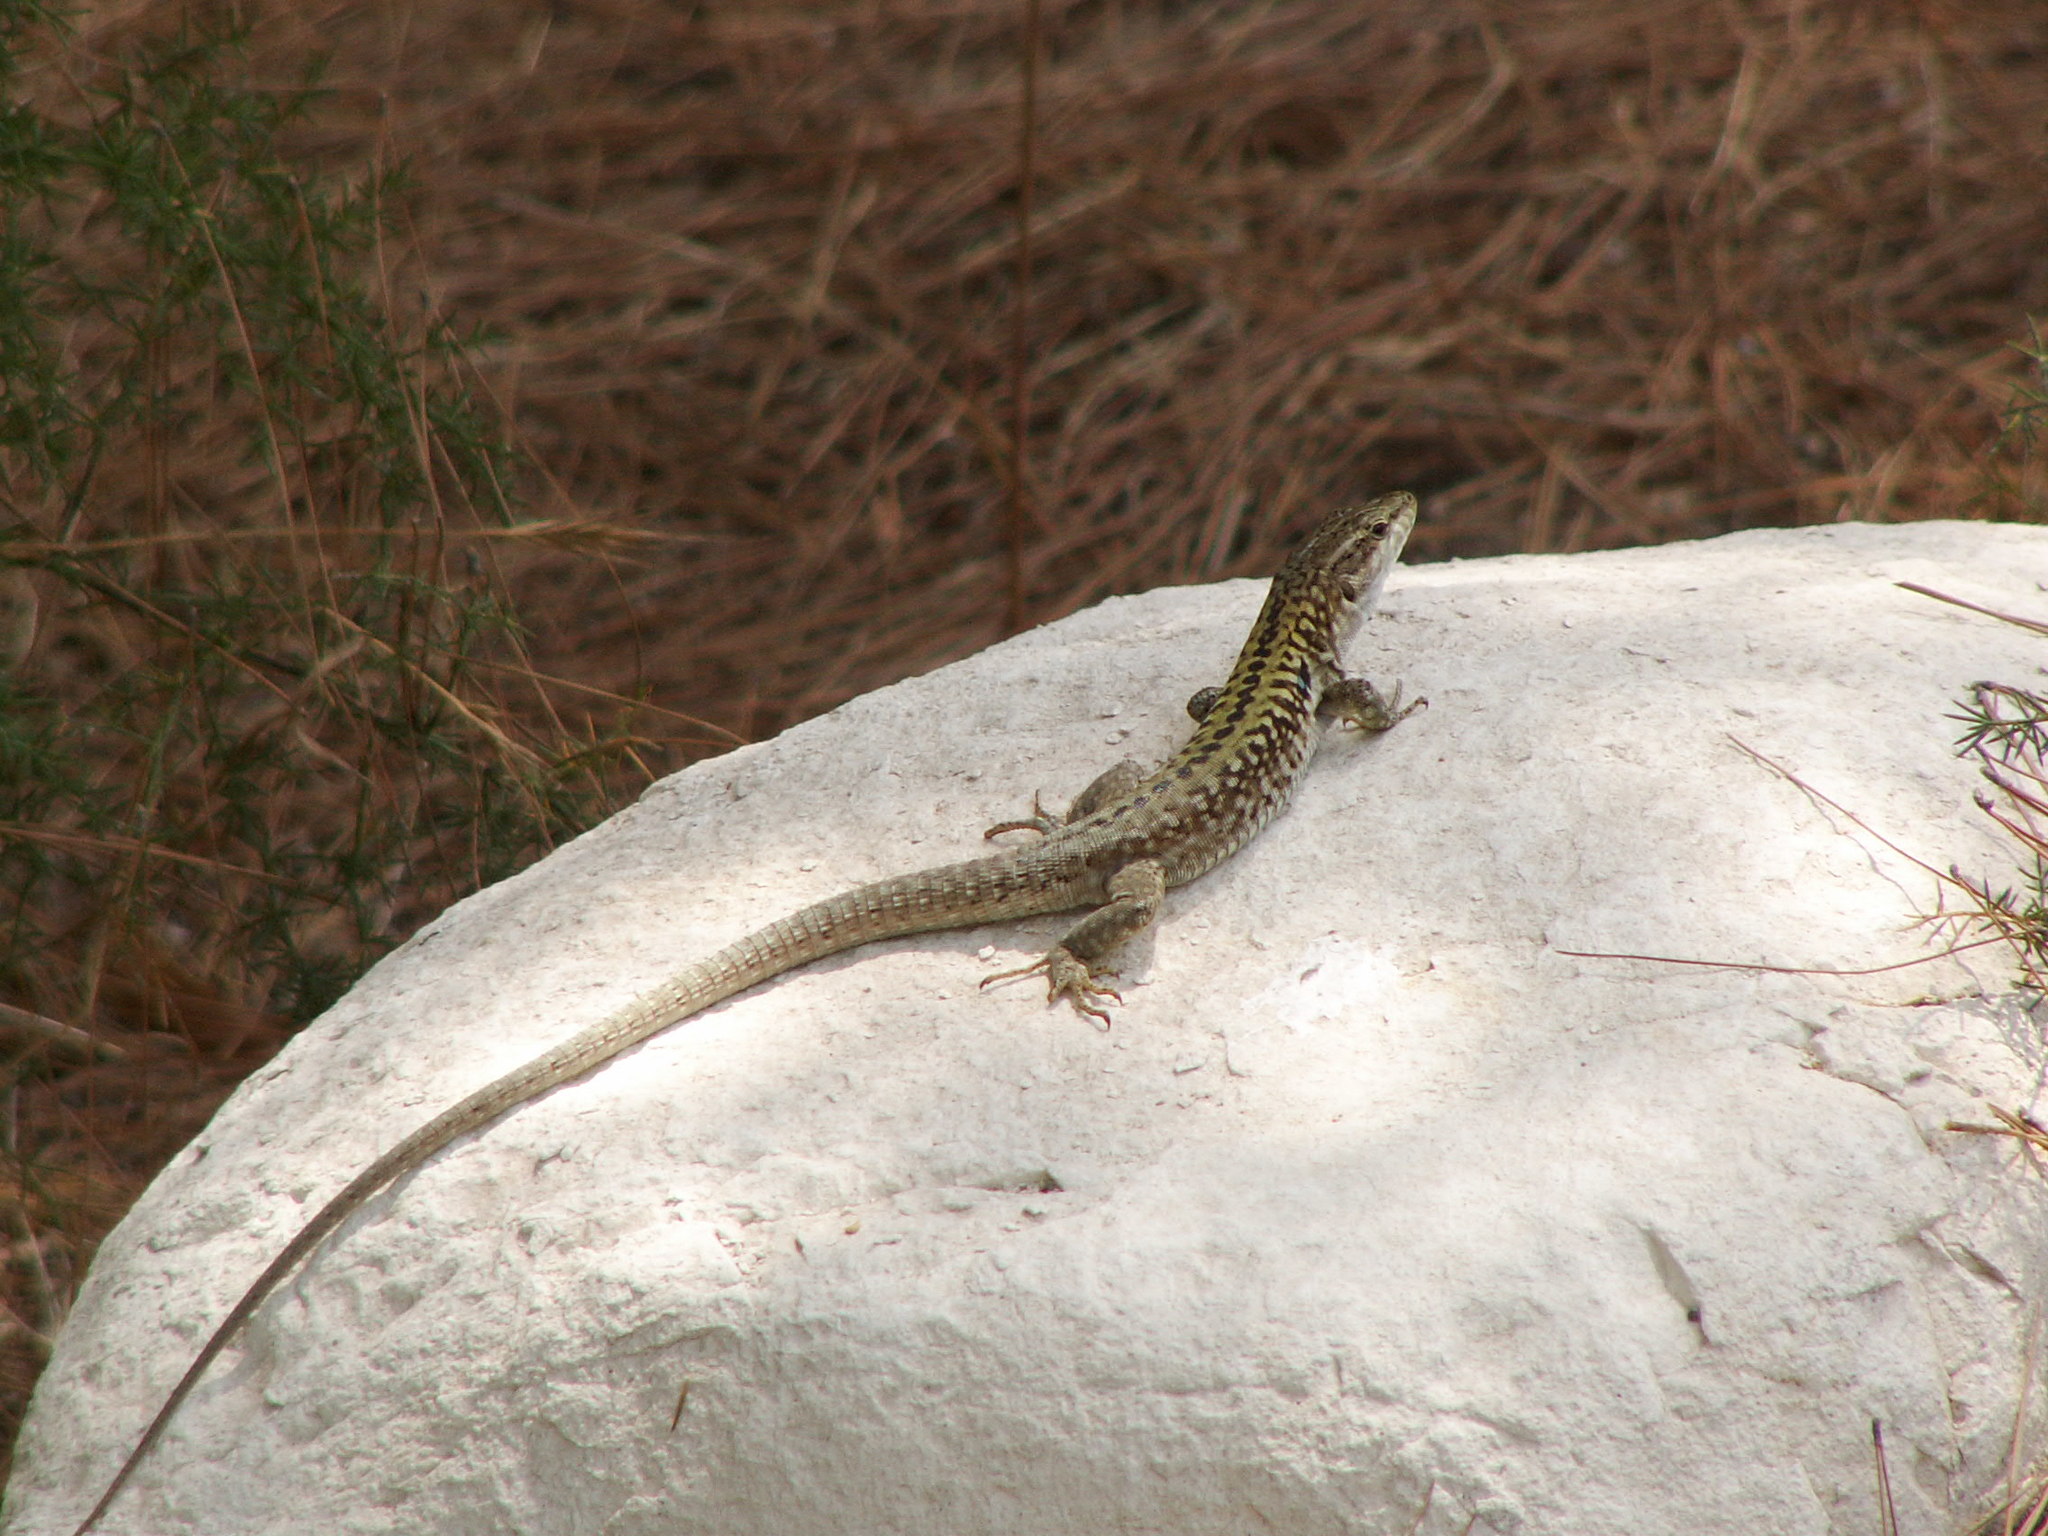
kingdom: Animalia
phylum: Chordata
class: Squamata
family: Lacertidae
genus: Podarcis
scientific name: Podarcis siculus
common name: Italian wall lizard
